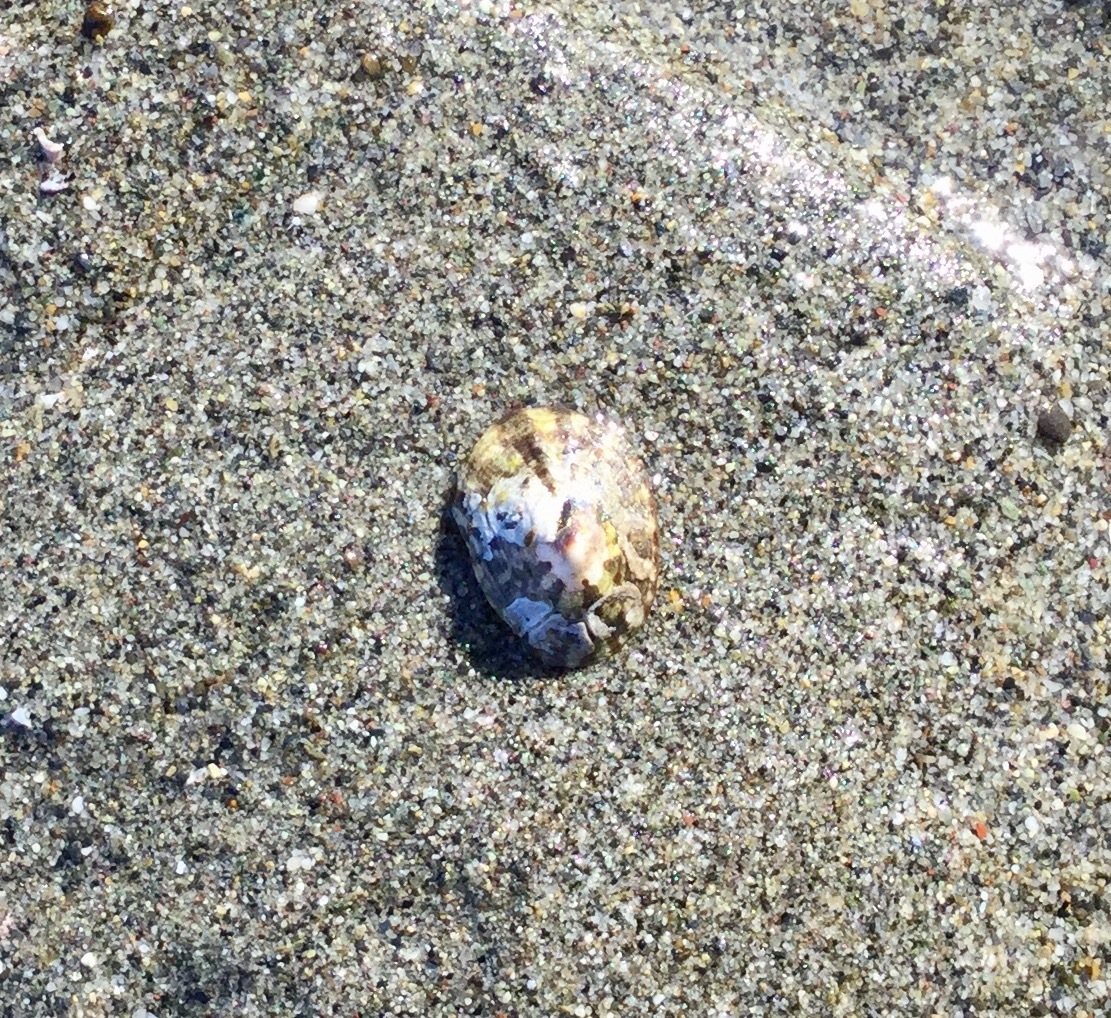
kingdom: Animalia
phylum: Mollusca
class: Gastropoda
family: Lottiidae
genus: Lottia
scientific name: Lottia pelta
